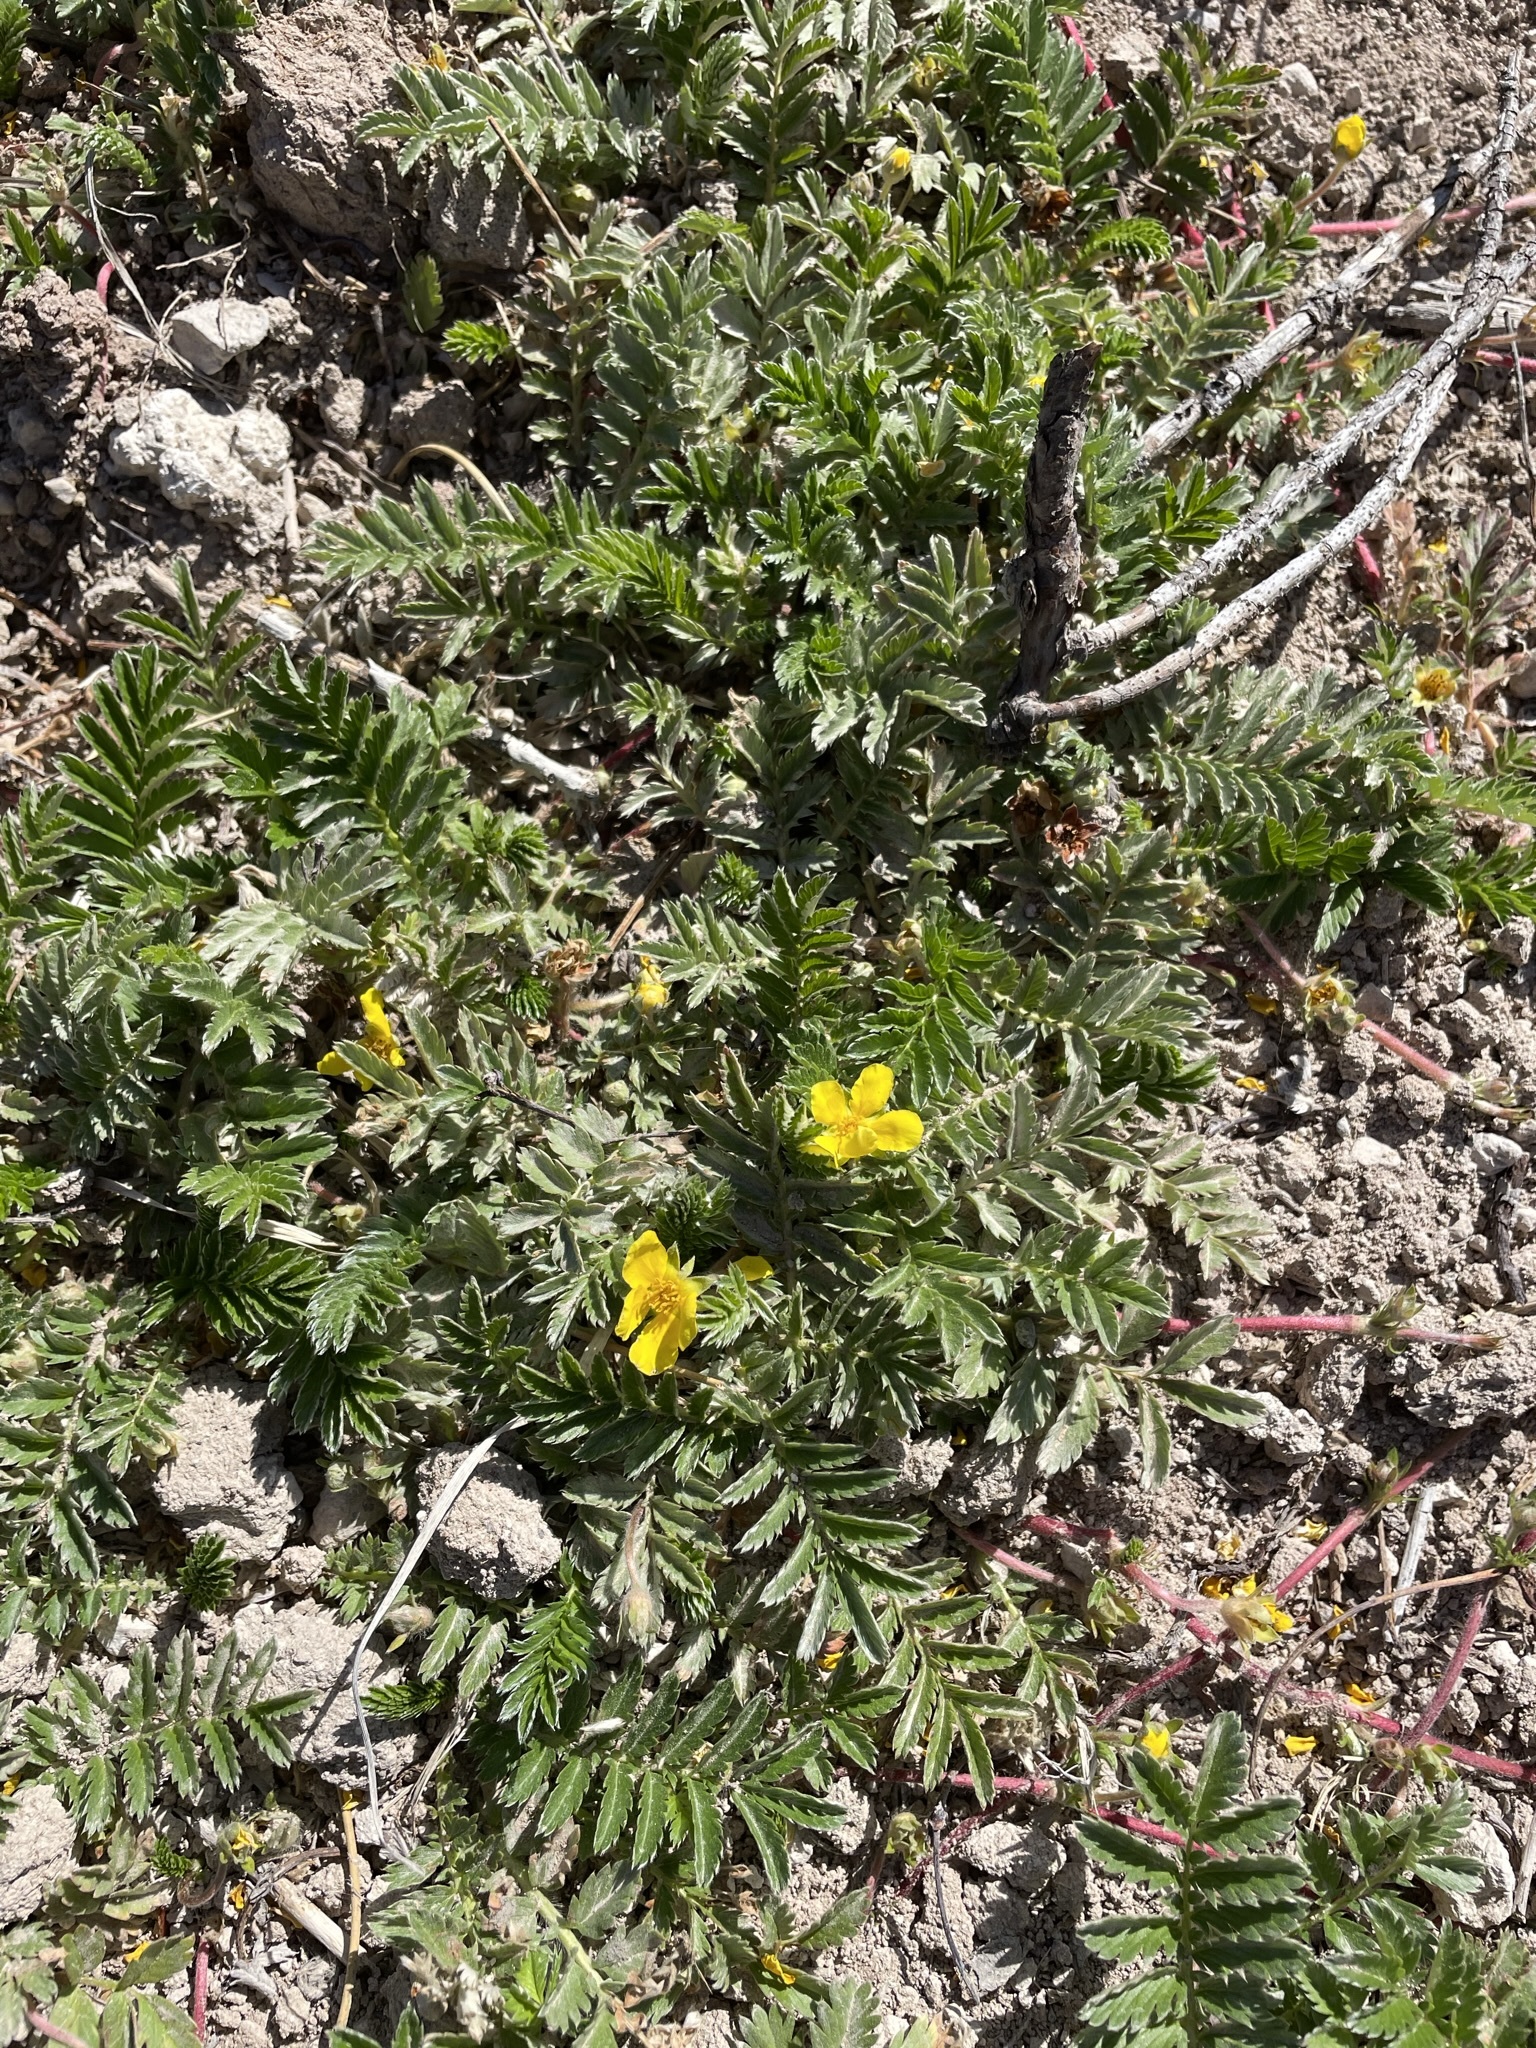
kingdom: Plantae
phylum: Tracheophyta
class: Magnoliopsida
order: Rosales
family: Rosaceae
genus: Argentina
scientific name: Argentina anserina
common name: Common silverweed
